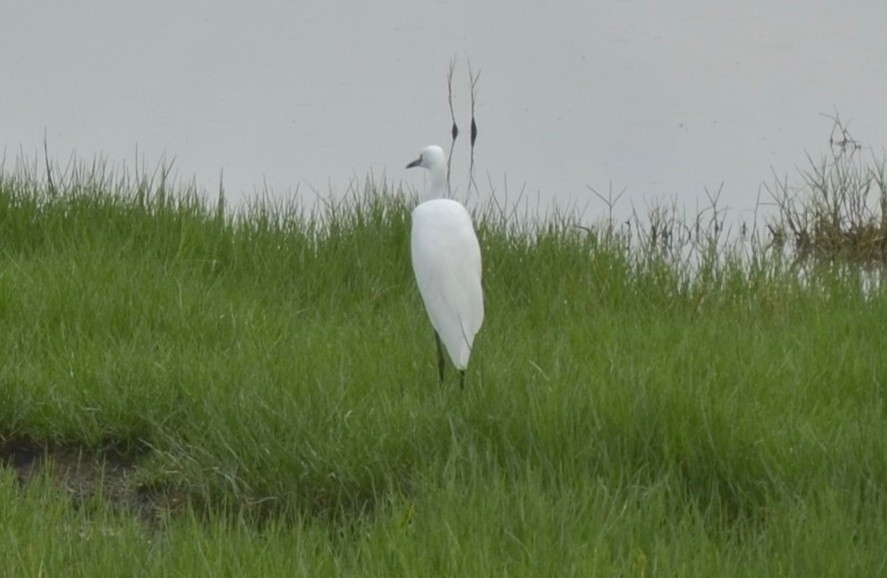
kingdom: Animalia
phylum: Chordata
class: Aves
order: Pelecaniformes
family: Ardeidae
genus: Egretta
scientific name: Egretta garzetta
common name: Little egret
